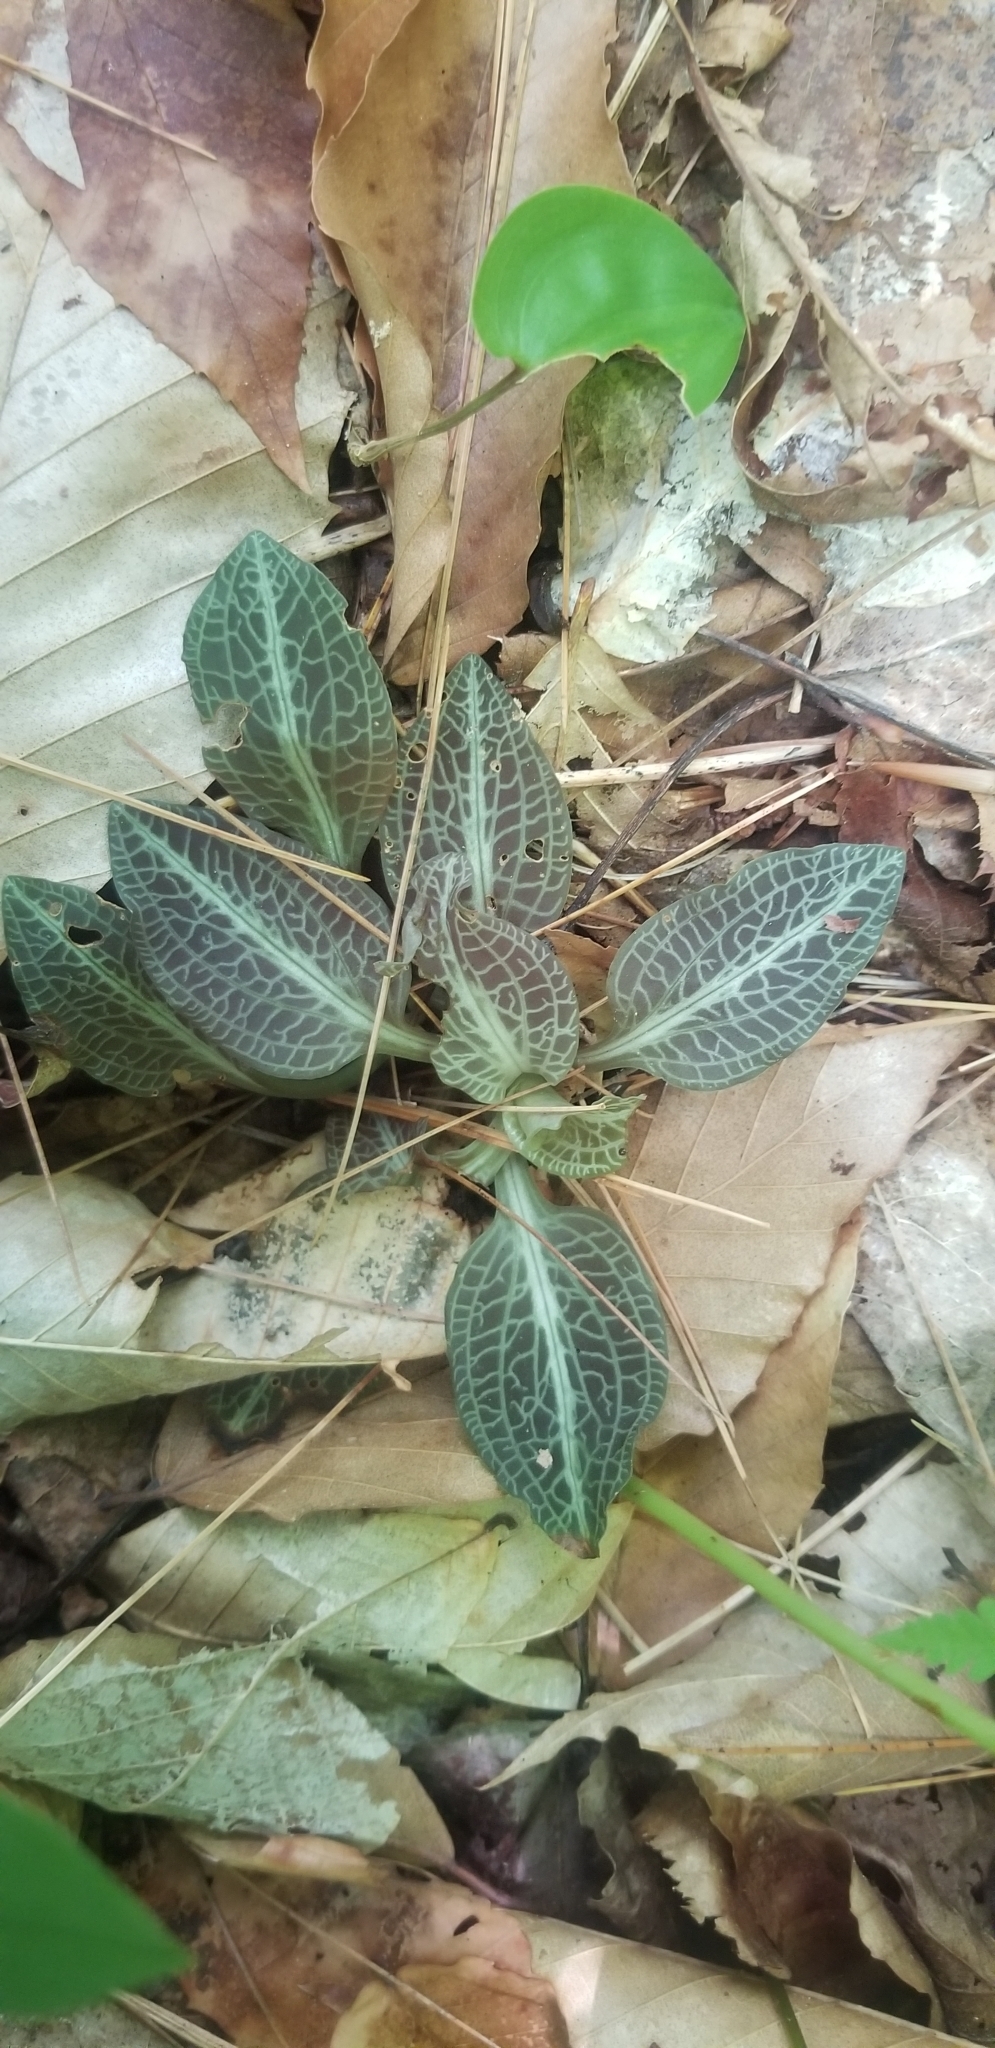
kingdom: Plantae
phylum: Tracheophyta
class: Liliopsida
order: Asparagales
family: Orchidaceae
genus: Goodyera
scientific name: Goodyera pubescens
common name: Downy rattlesnake-plantain
